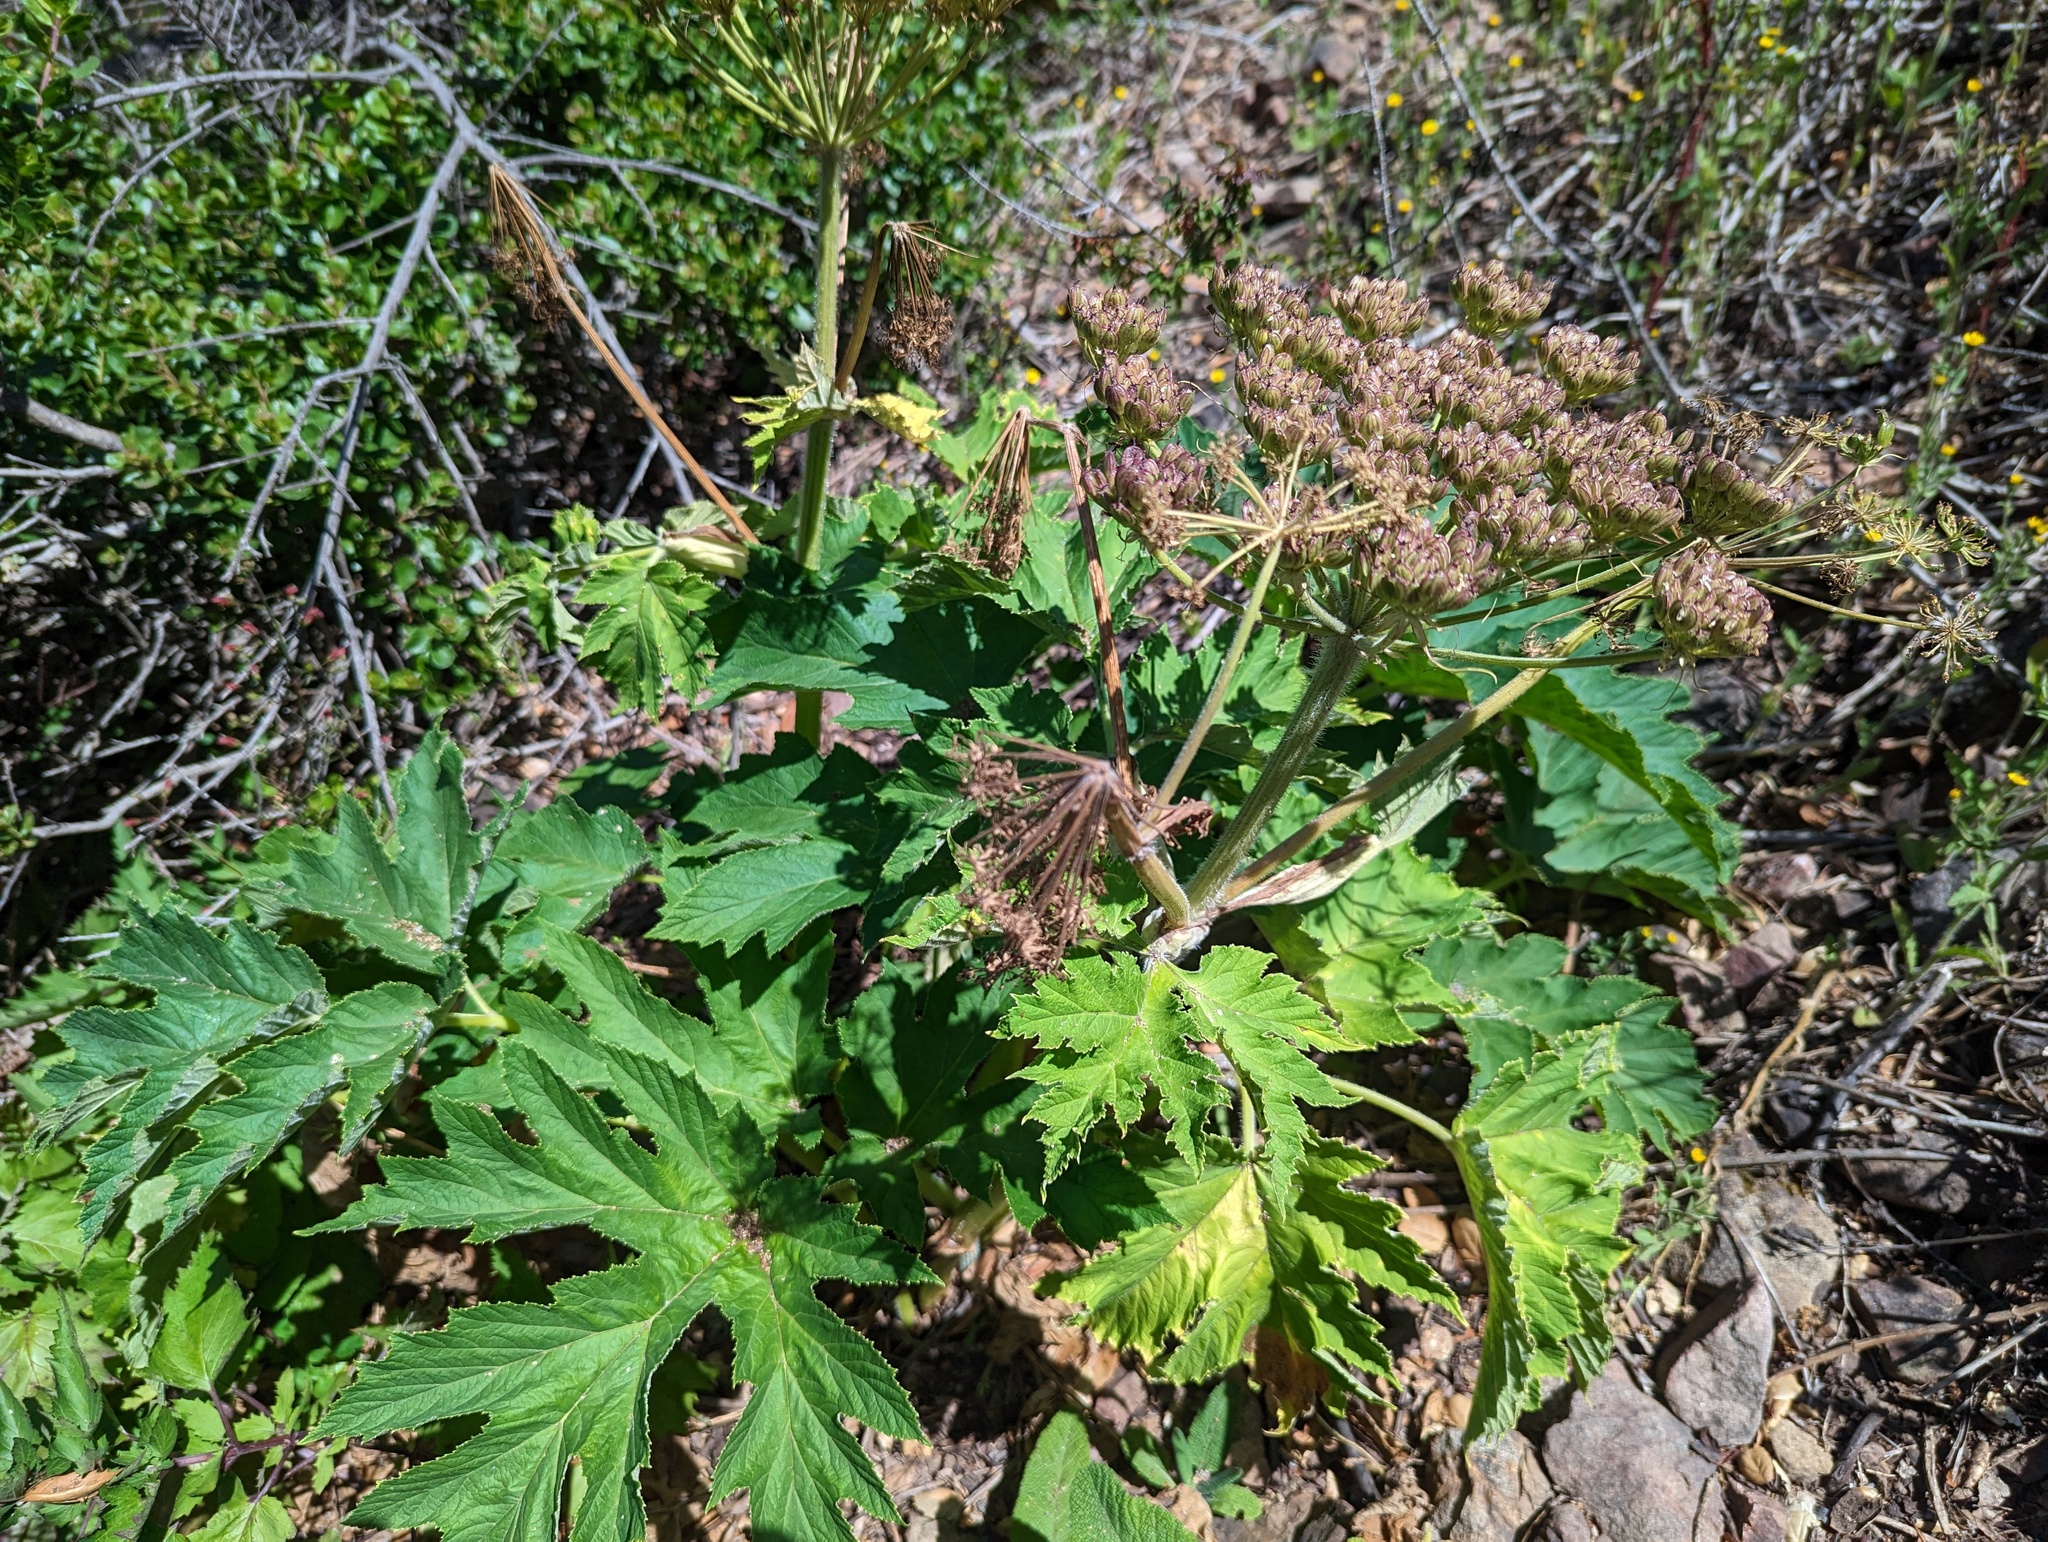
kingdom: Plantae
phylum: Tracheophyta
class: Magnoliopsida
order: Apiales
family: Apiaceae
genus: Heracleum
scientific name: Heracleum maximum
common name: American cow parsnip
